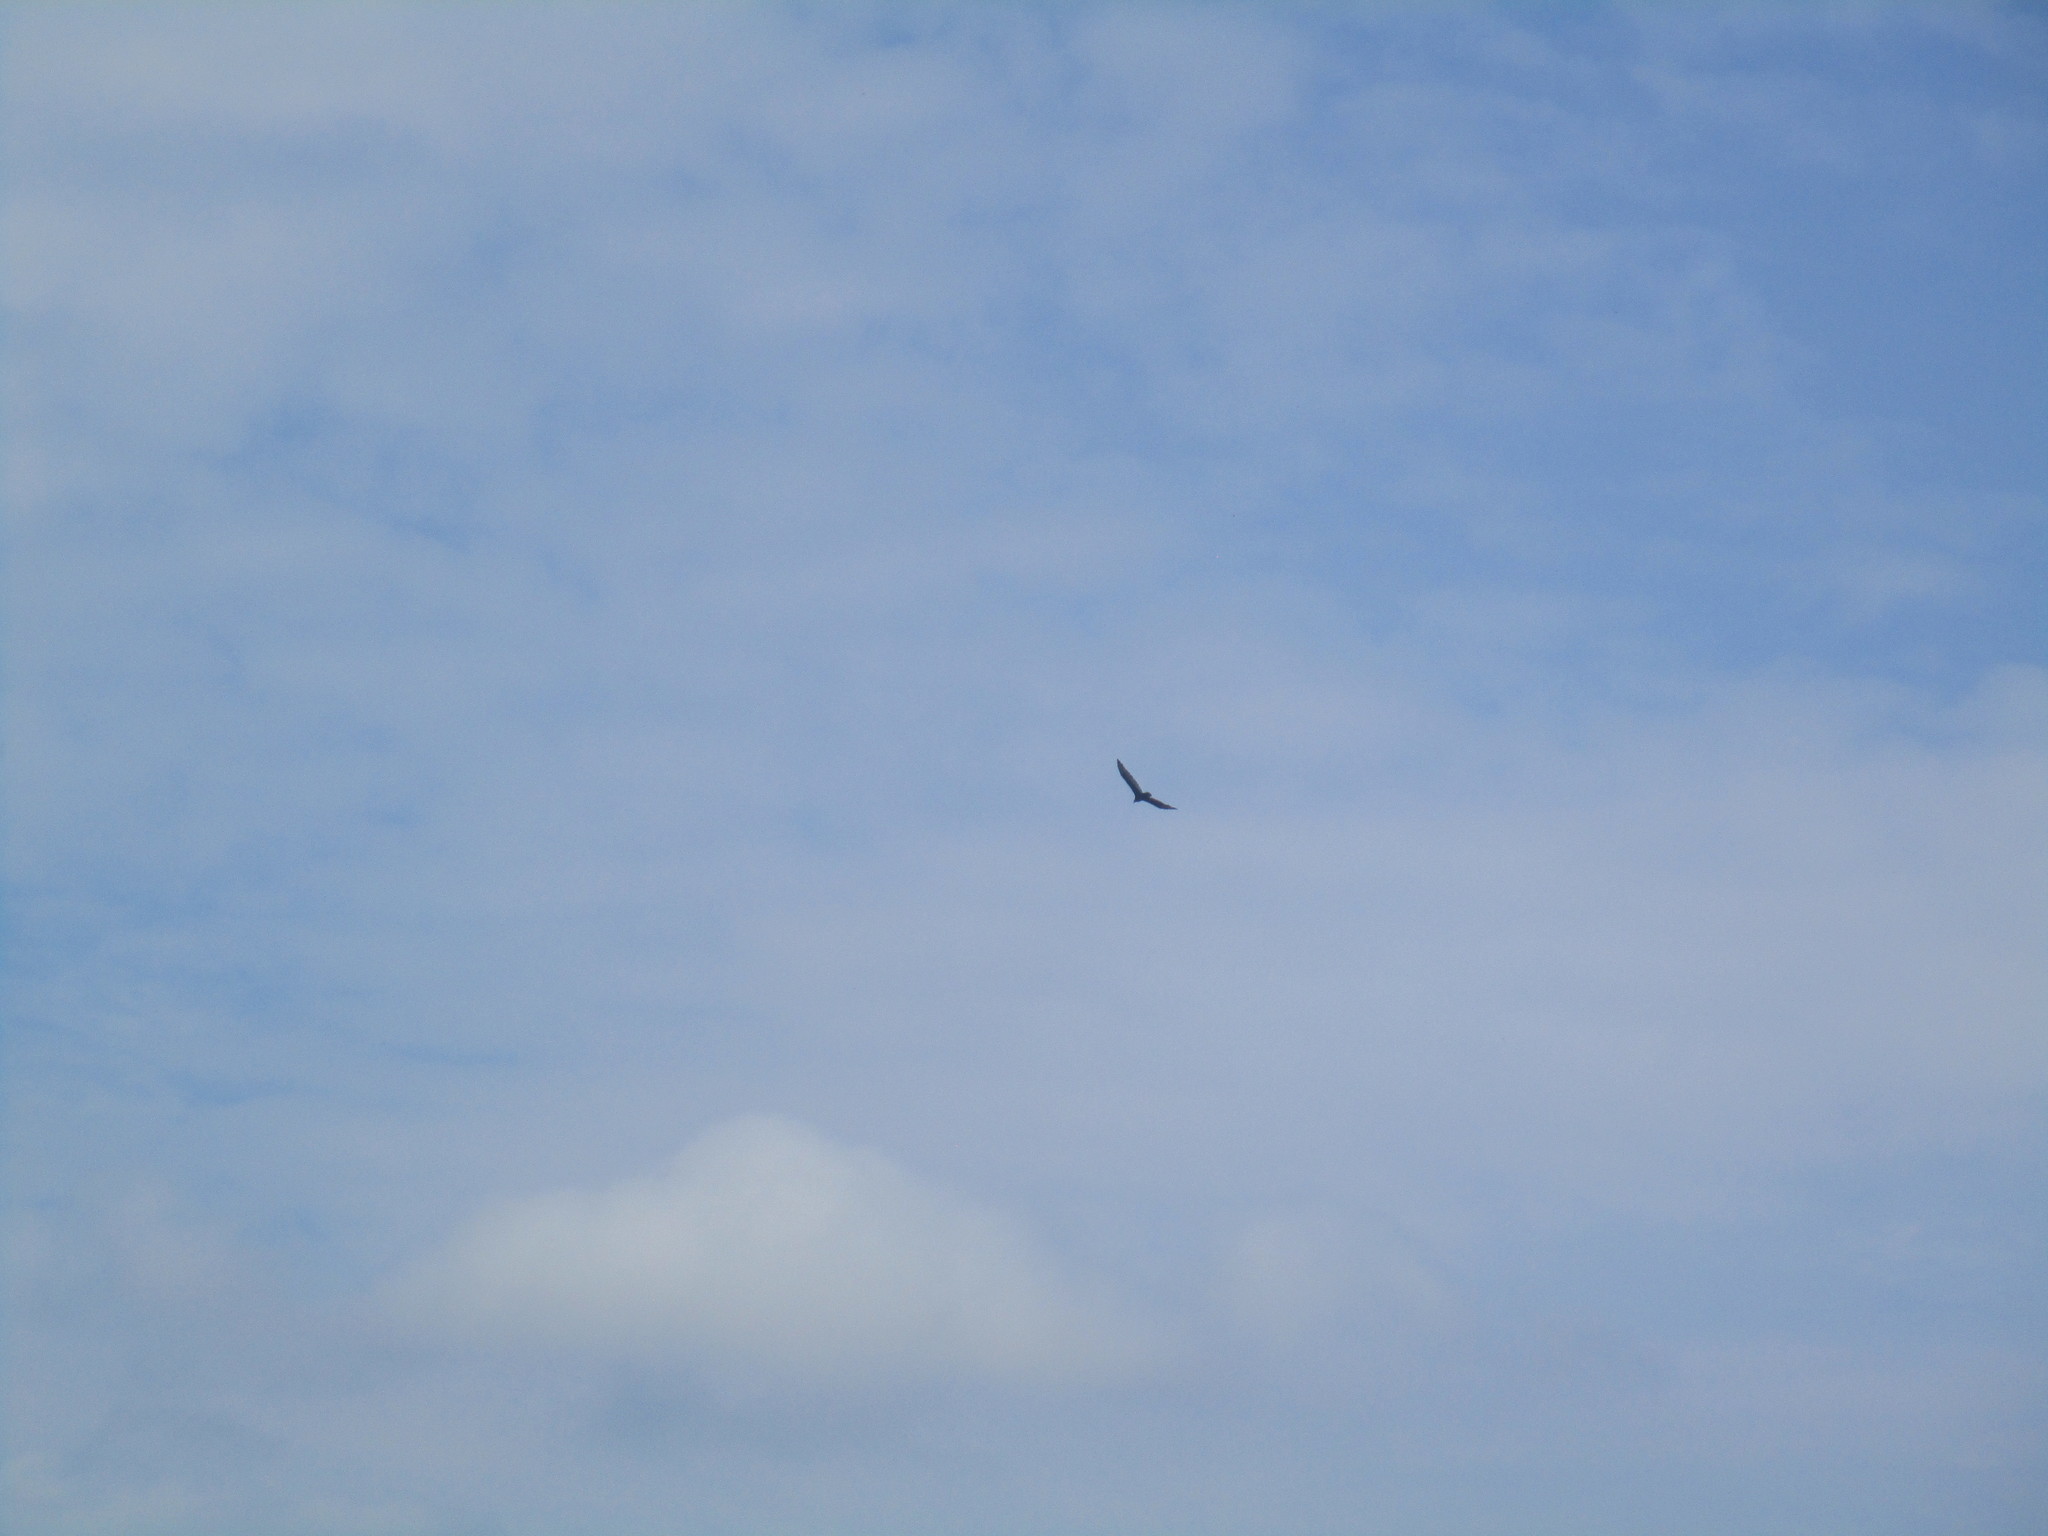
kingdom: Animalia
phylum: Chordata
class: Aves
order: Accipitriformes
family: Cathartidae
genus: Cathartes
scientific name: Cathartes aura
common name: Turkey vulture
